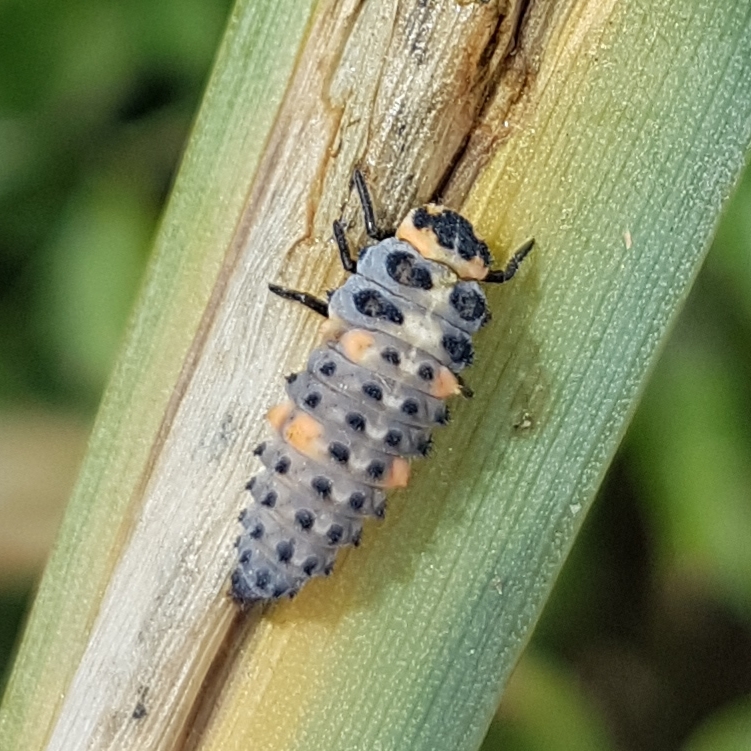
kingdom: Animalia
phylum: Arthropoda
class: Insecta
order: Coleoptera
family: Coccinellidae
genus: Coccinella
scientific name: Coccinella septempunctata
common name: Sevenspotted lady beetle
